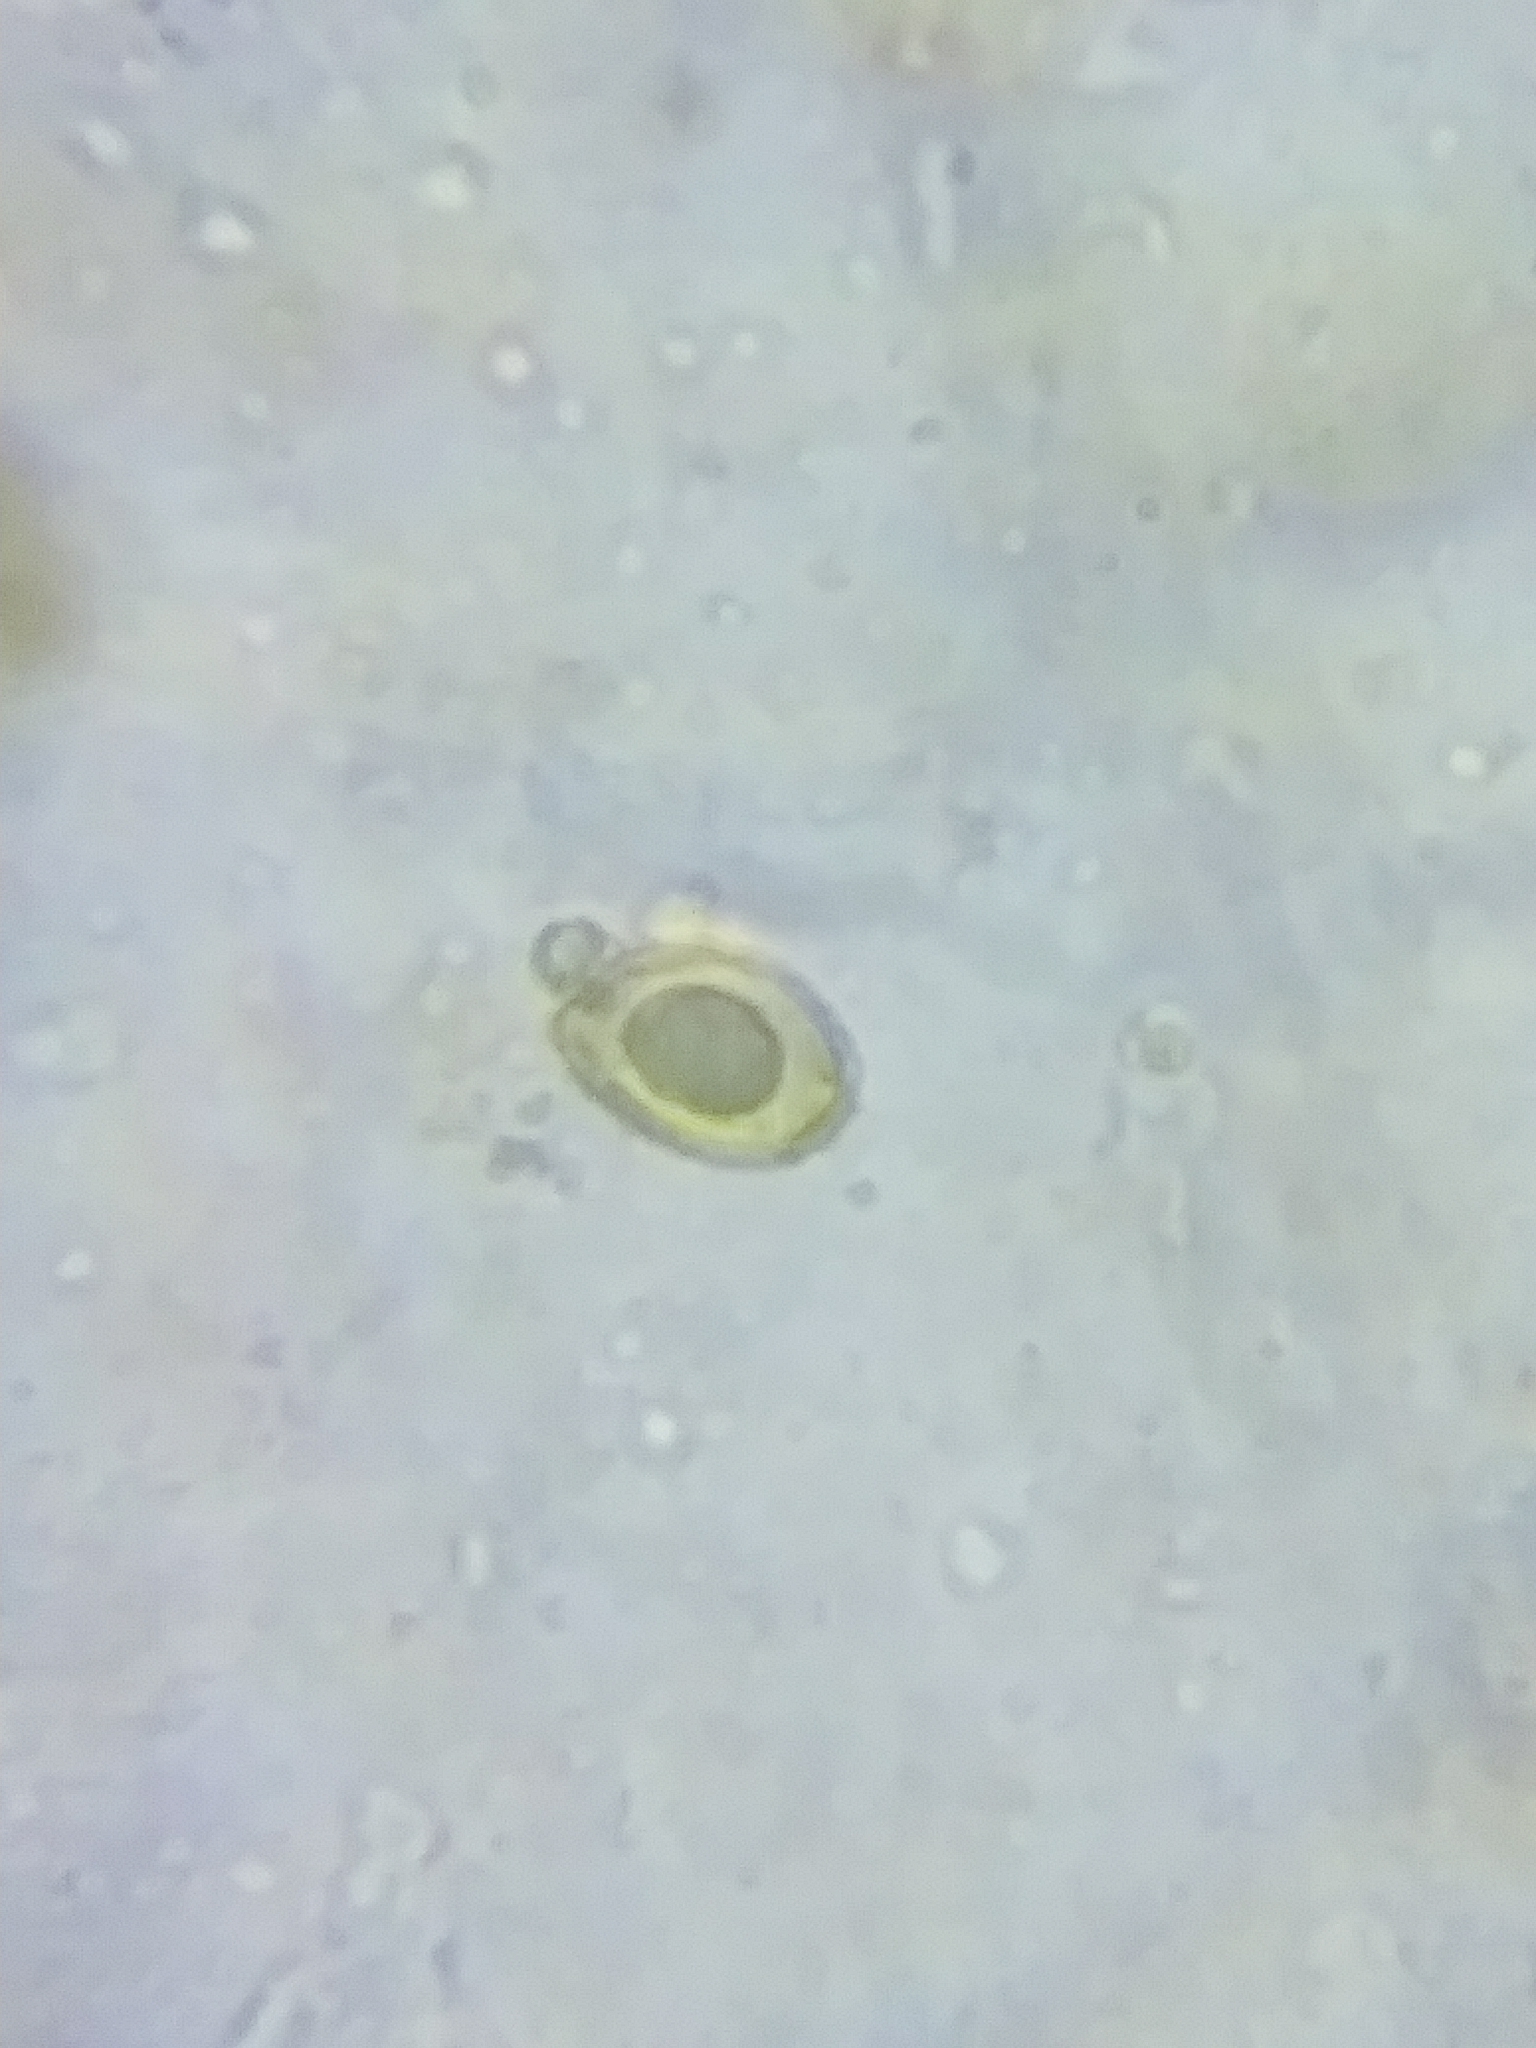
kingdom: Fungi
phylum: Basidiomycota
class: Agaricomycetes
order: Agaricales
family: Cortinariaceae
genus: Thaxterogaster
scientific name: Thaxterogaster scaurus
